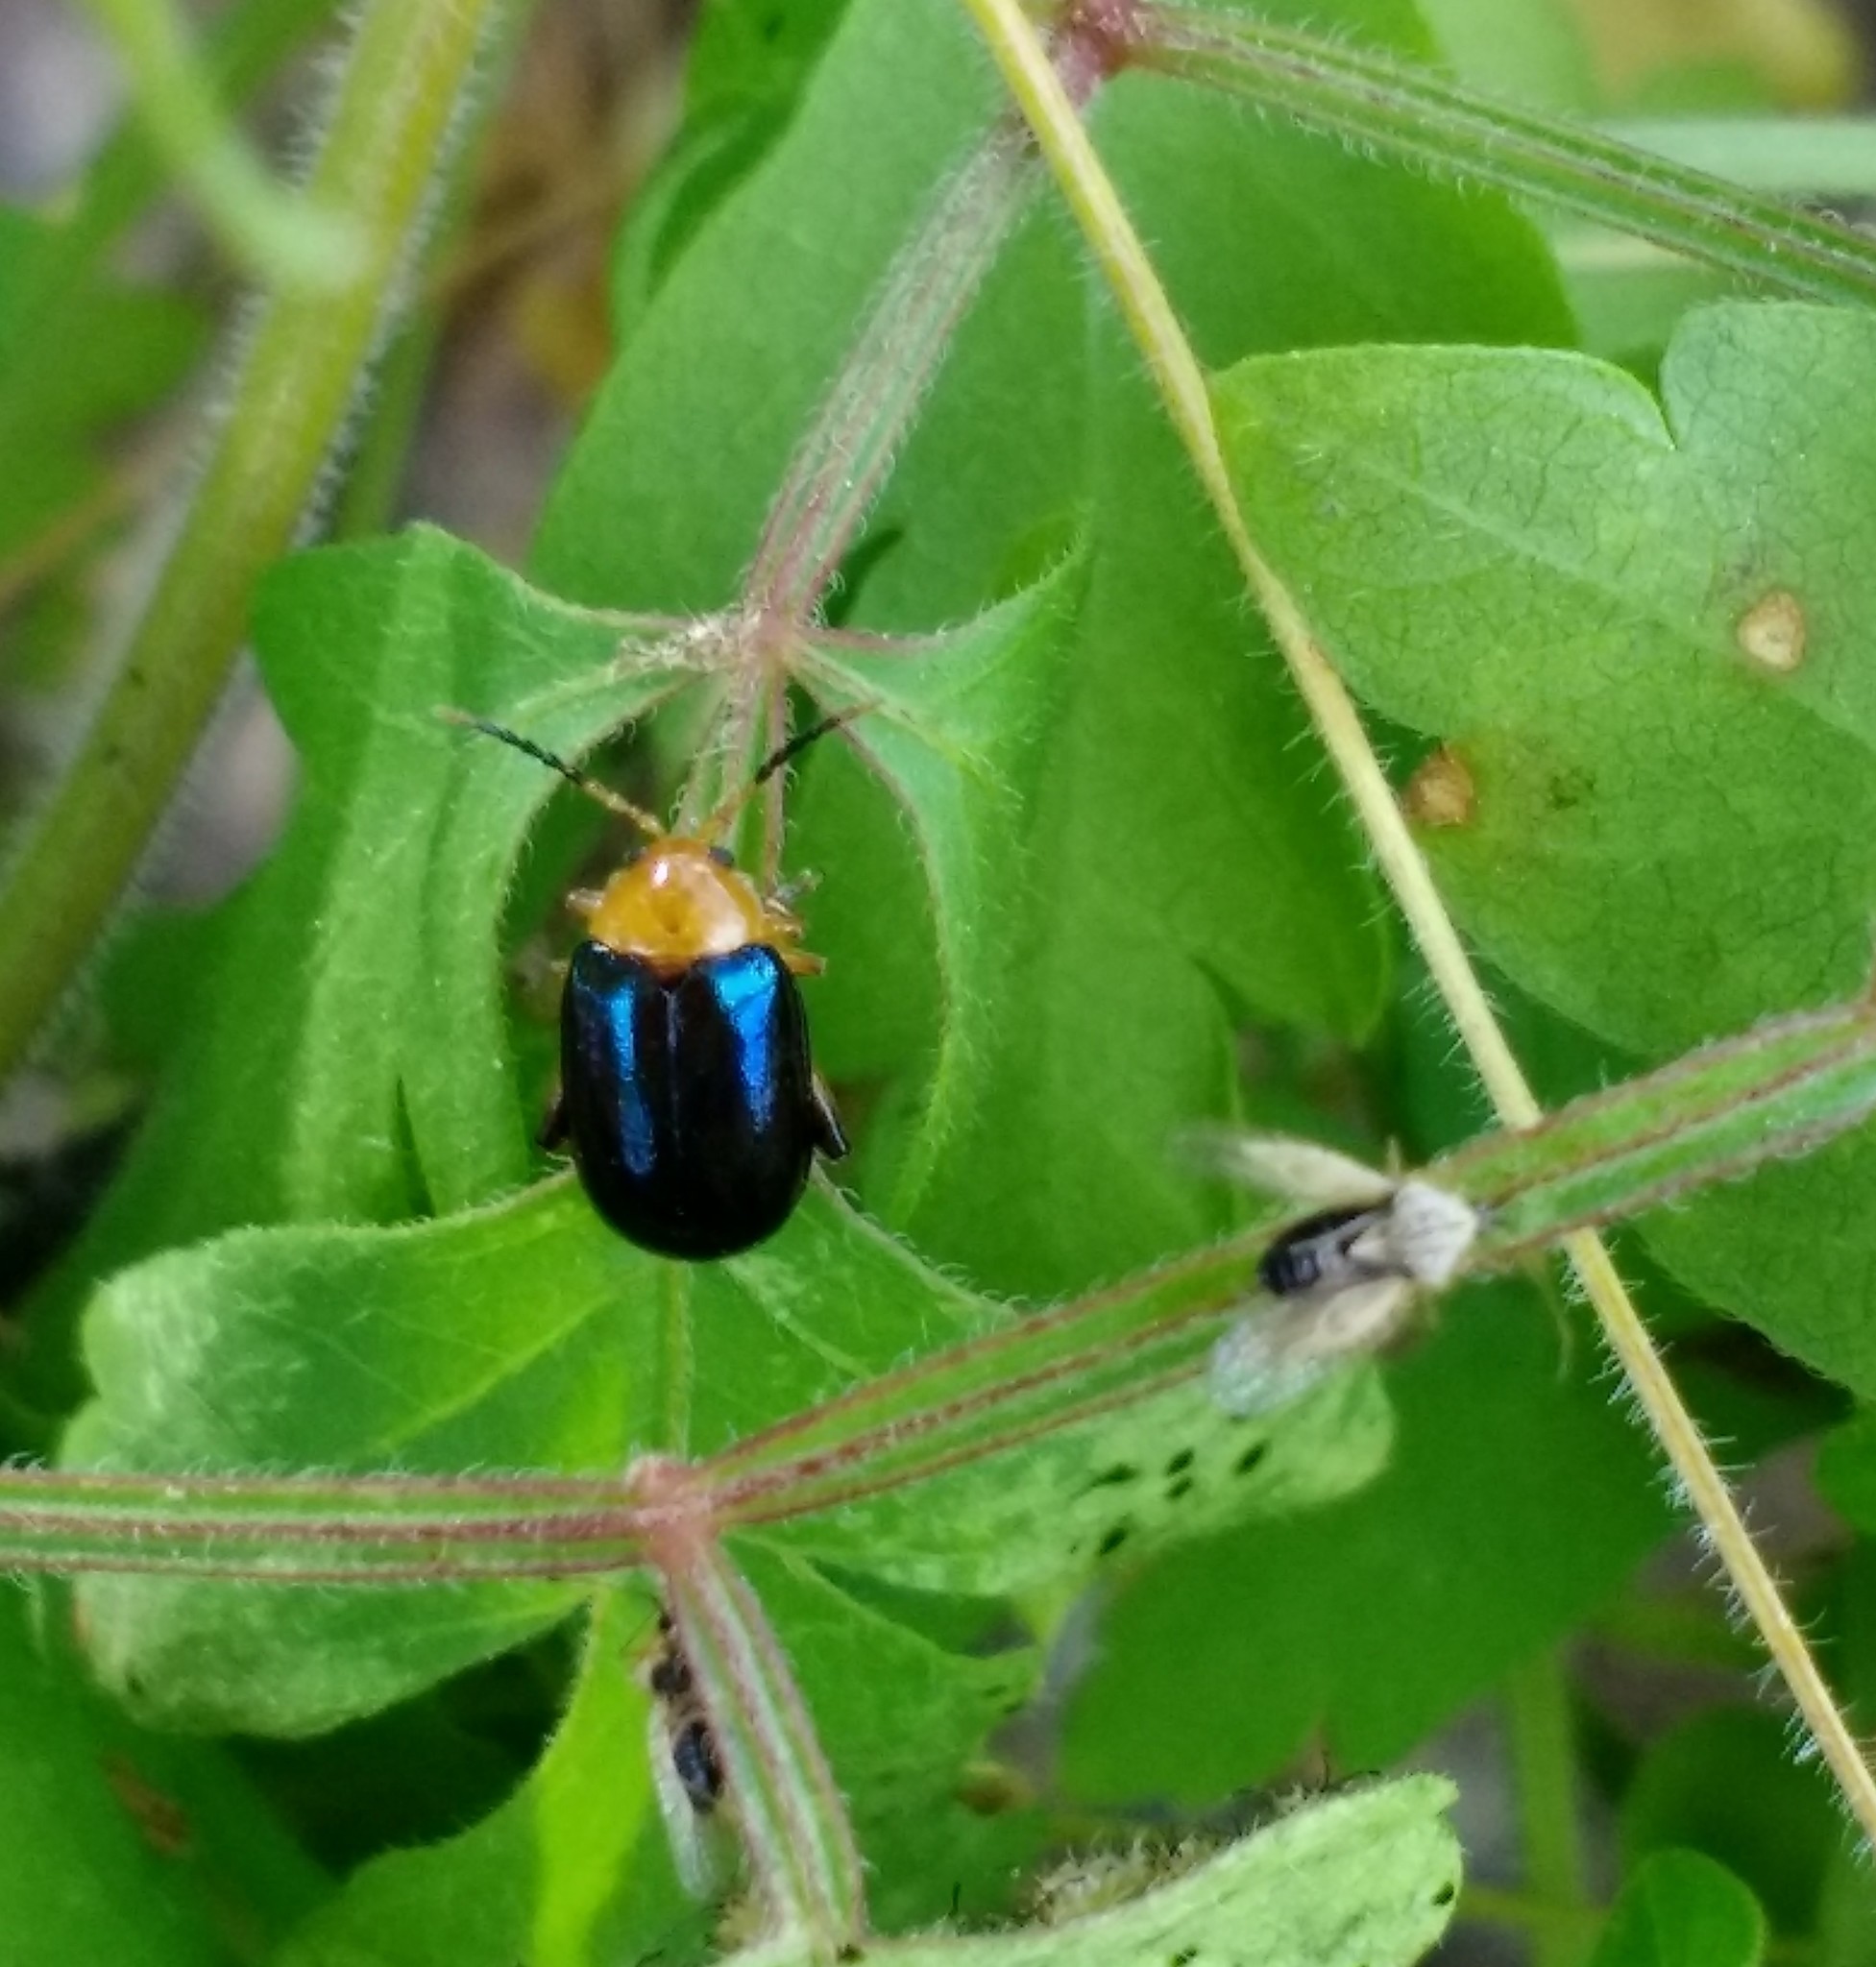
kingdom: Animalia
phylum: Arthropoda
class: Insecta
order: Coleoptera
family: Chrysomelidae
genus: Disonycha
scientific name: Disonycha varicornis
